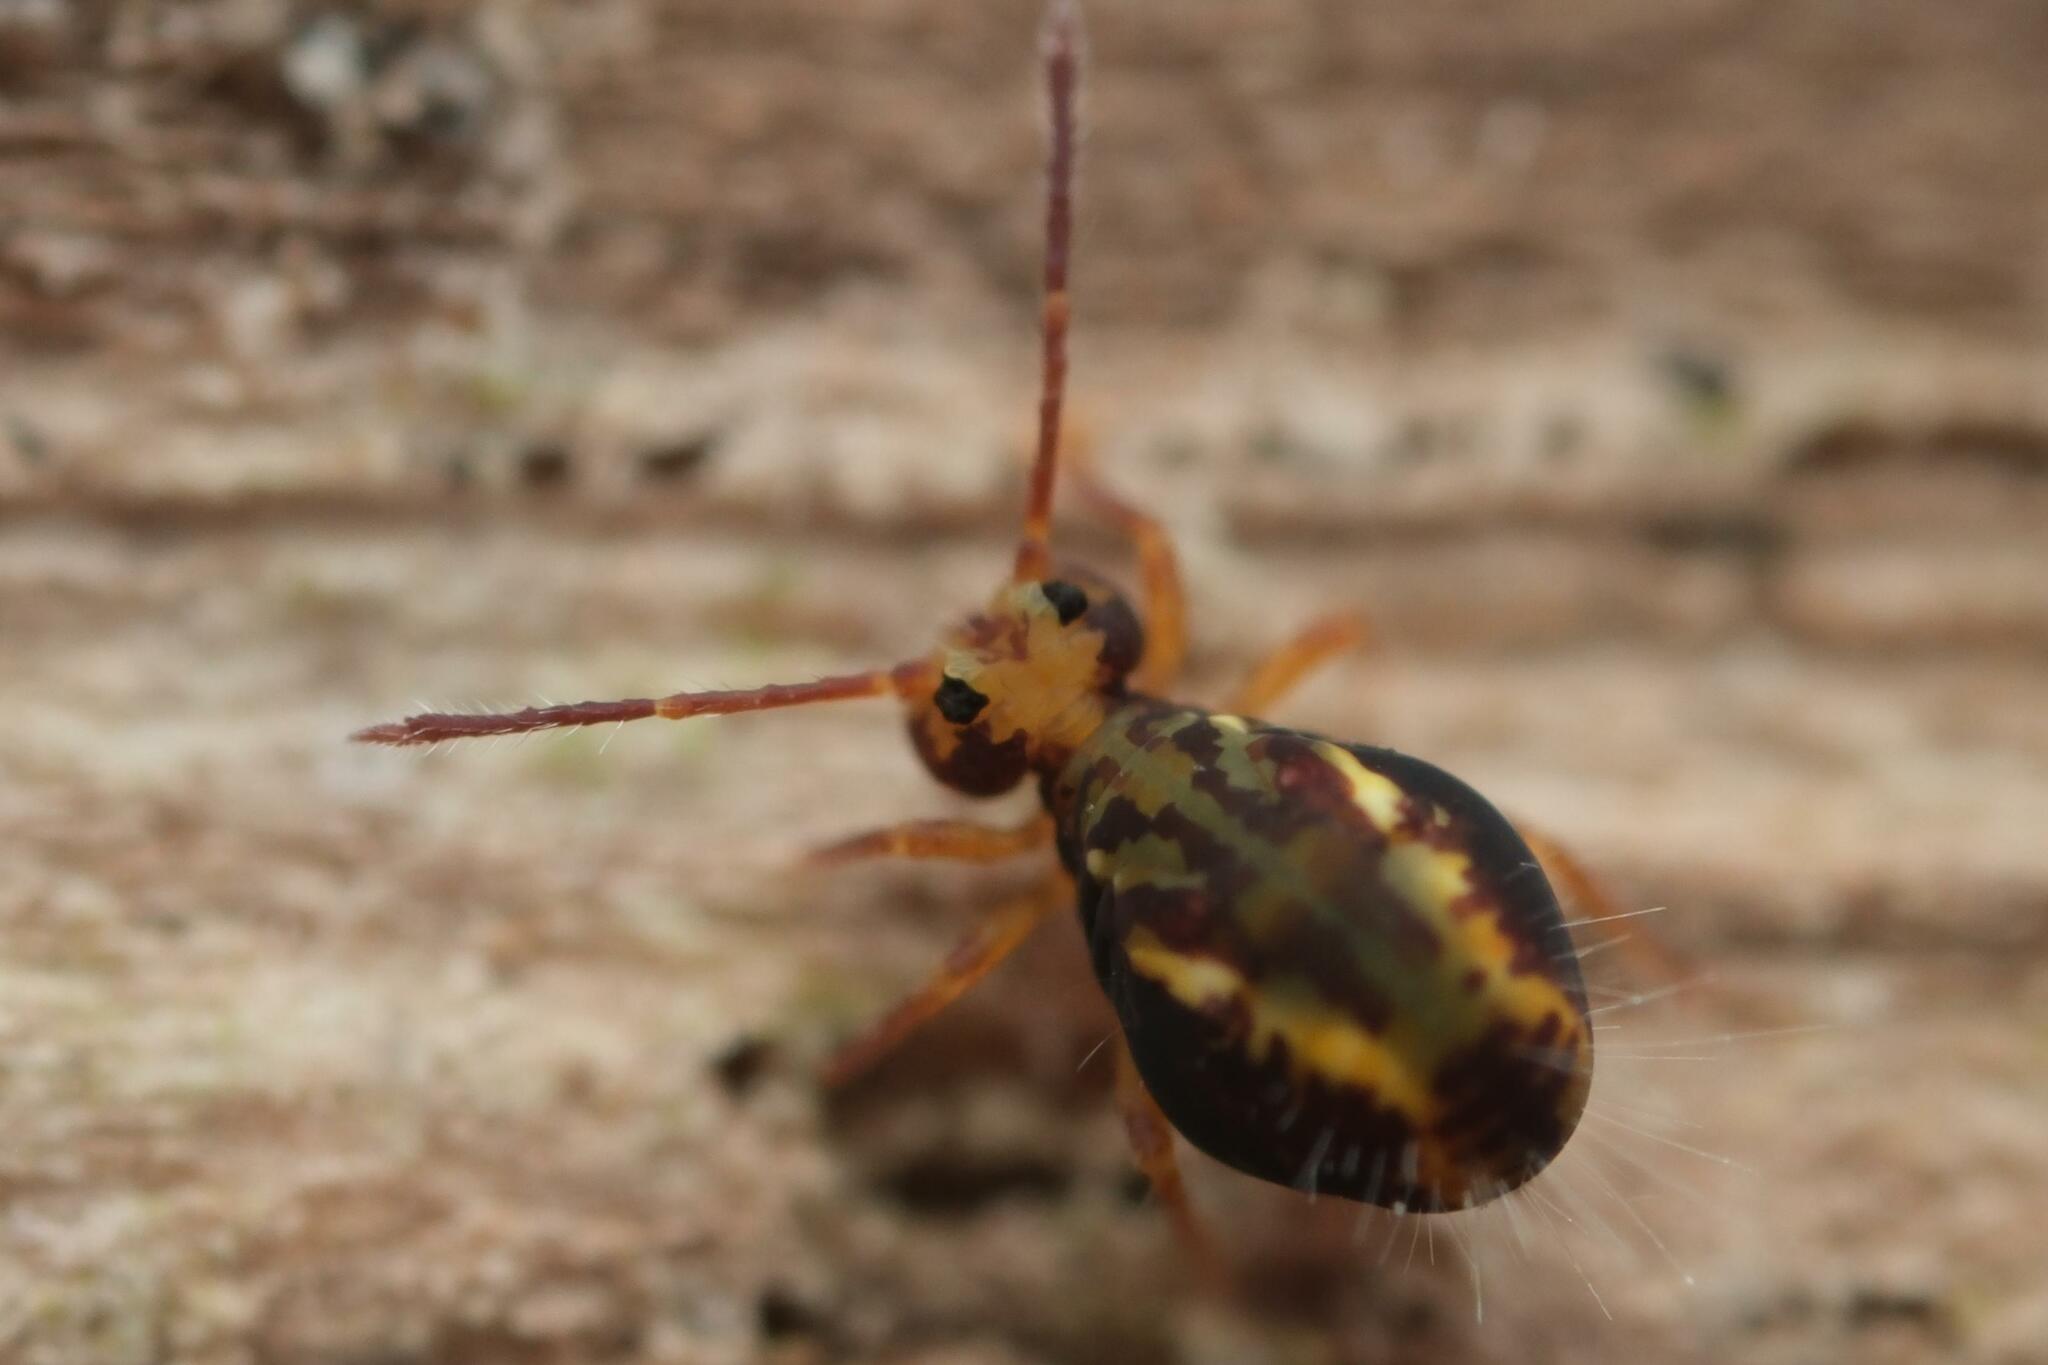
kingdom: Animalia
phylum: Arthropoda
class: Collembola
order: Symphypleona
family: Dicyrtomidae
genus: Dicyrtomina
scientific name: Dicyrtomina saundersi
